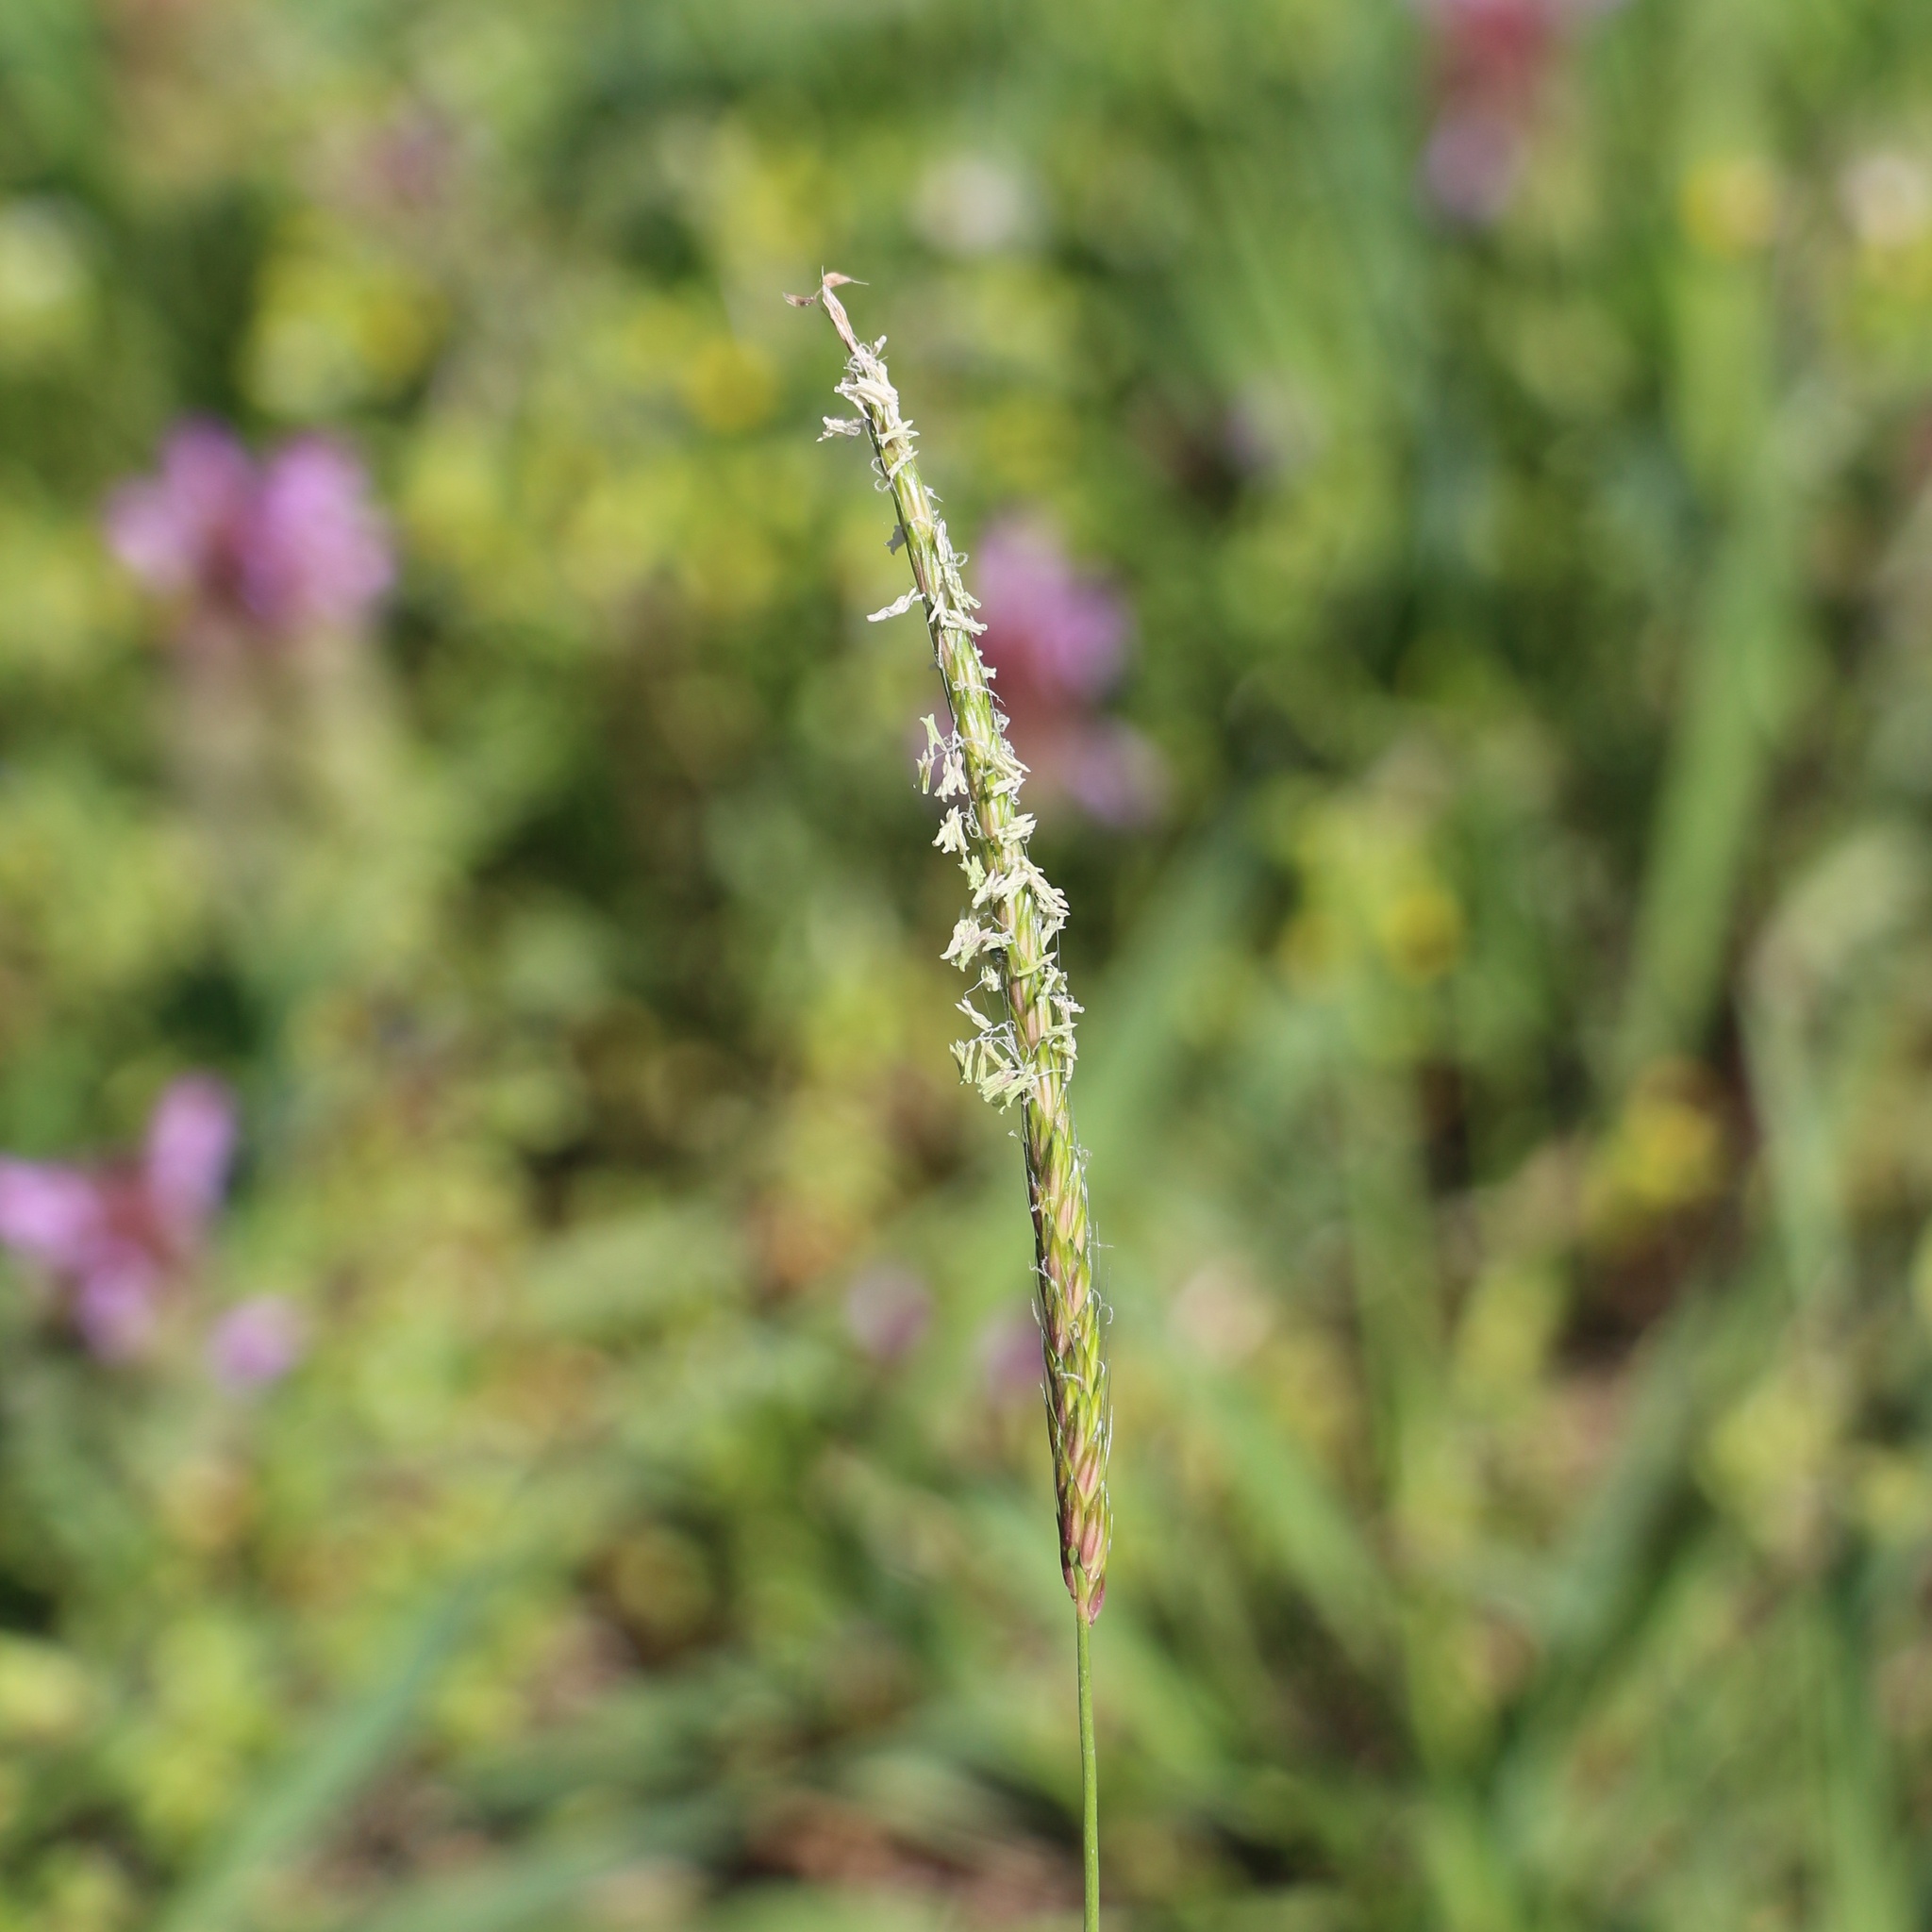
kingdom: Plantae
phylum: Tracheophyta
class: Liliopsida
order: Poales
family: Poaceae
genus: Alopecurus
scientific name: Alopecurus myosuroides
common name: Black-grass
